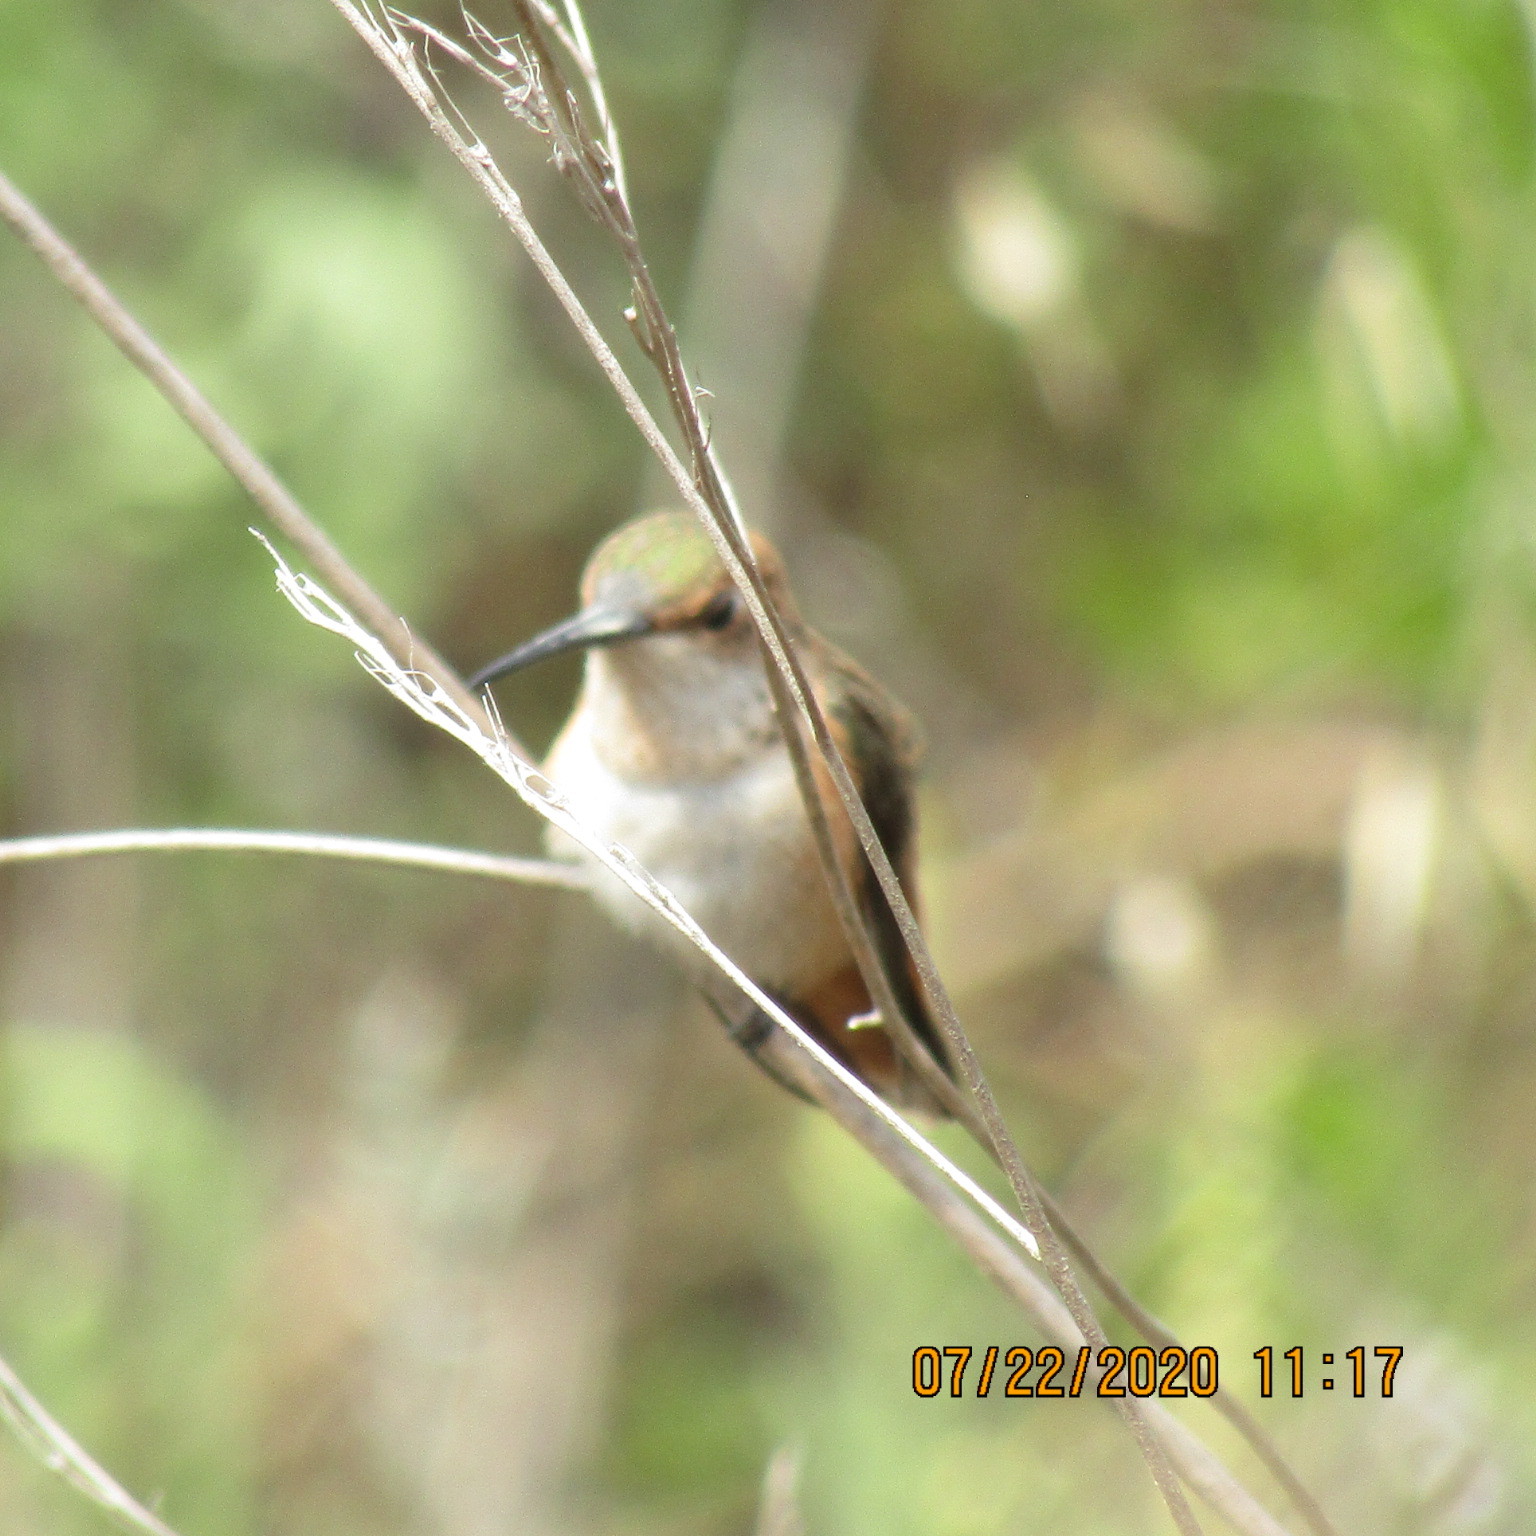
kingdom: Animalia
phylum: Chordata
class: Aves
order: Apodiformes
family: Trochilidae
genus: Selasphorus
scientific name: Selasphorus
